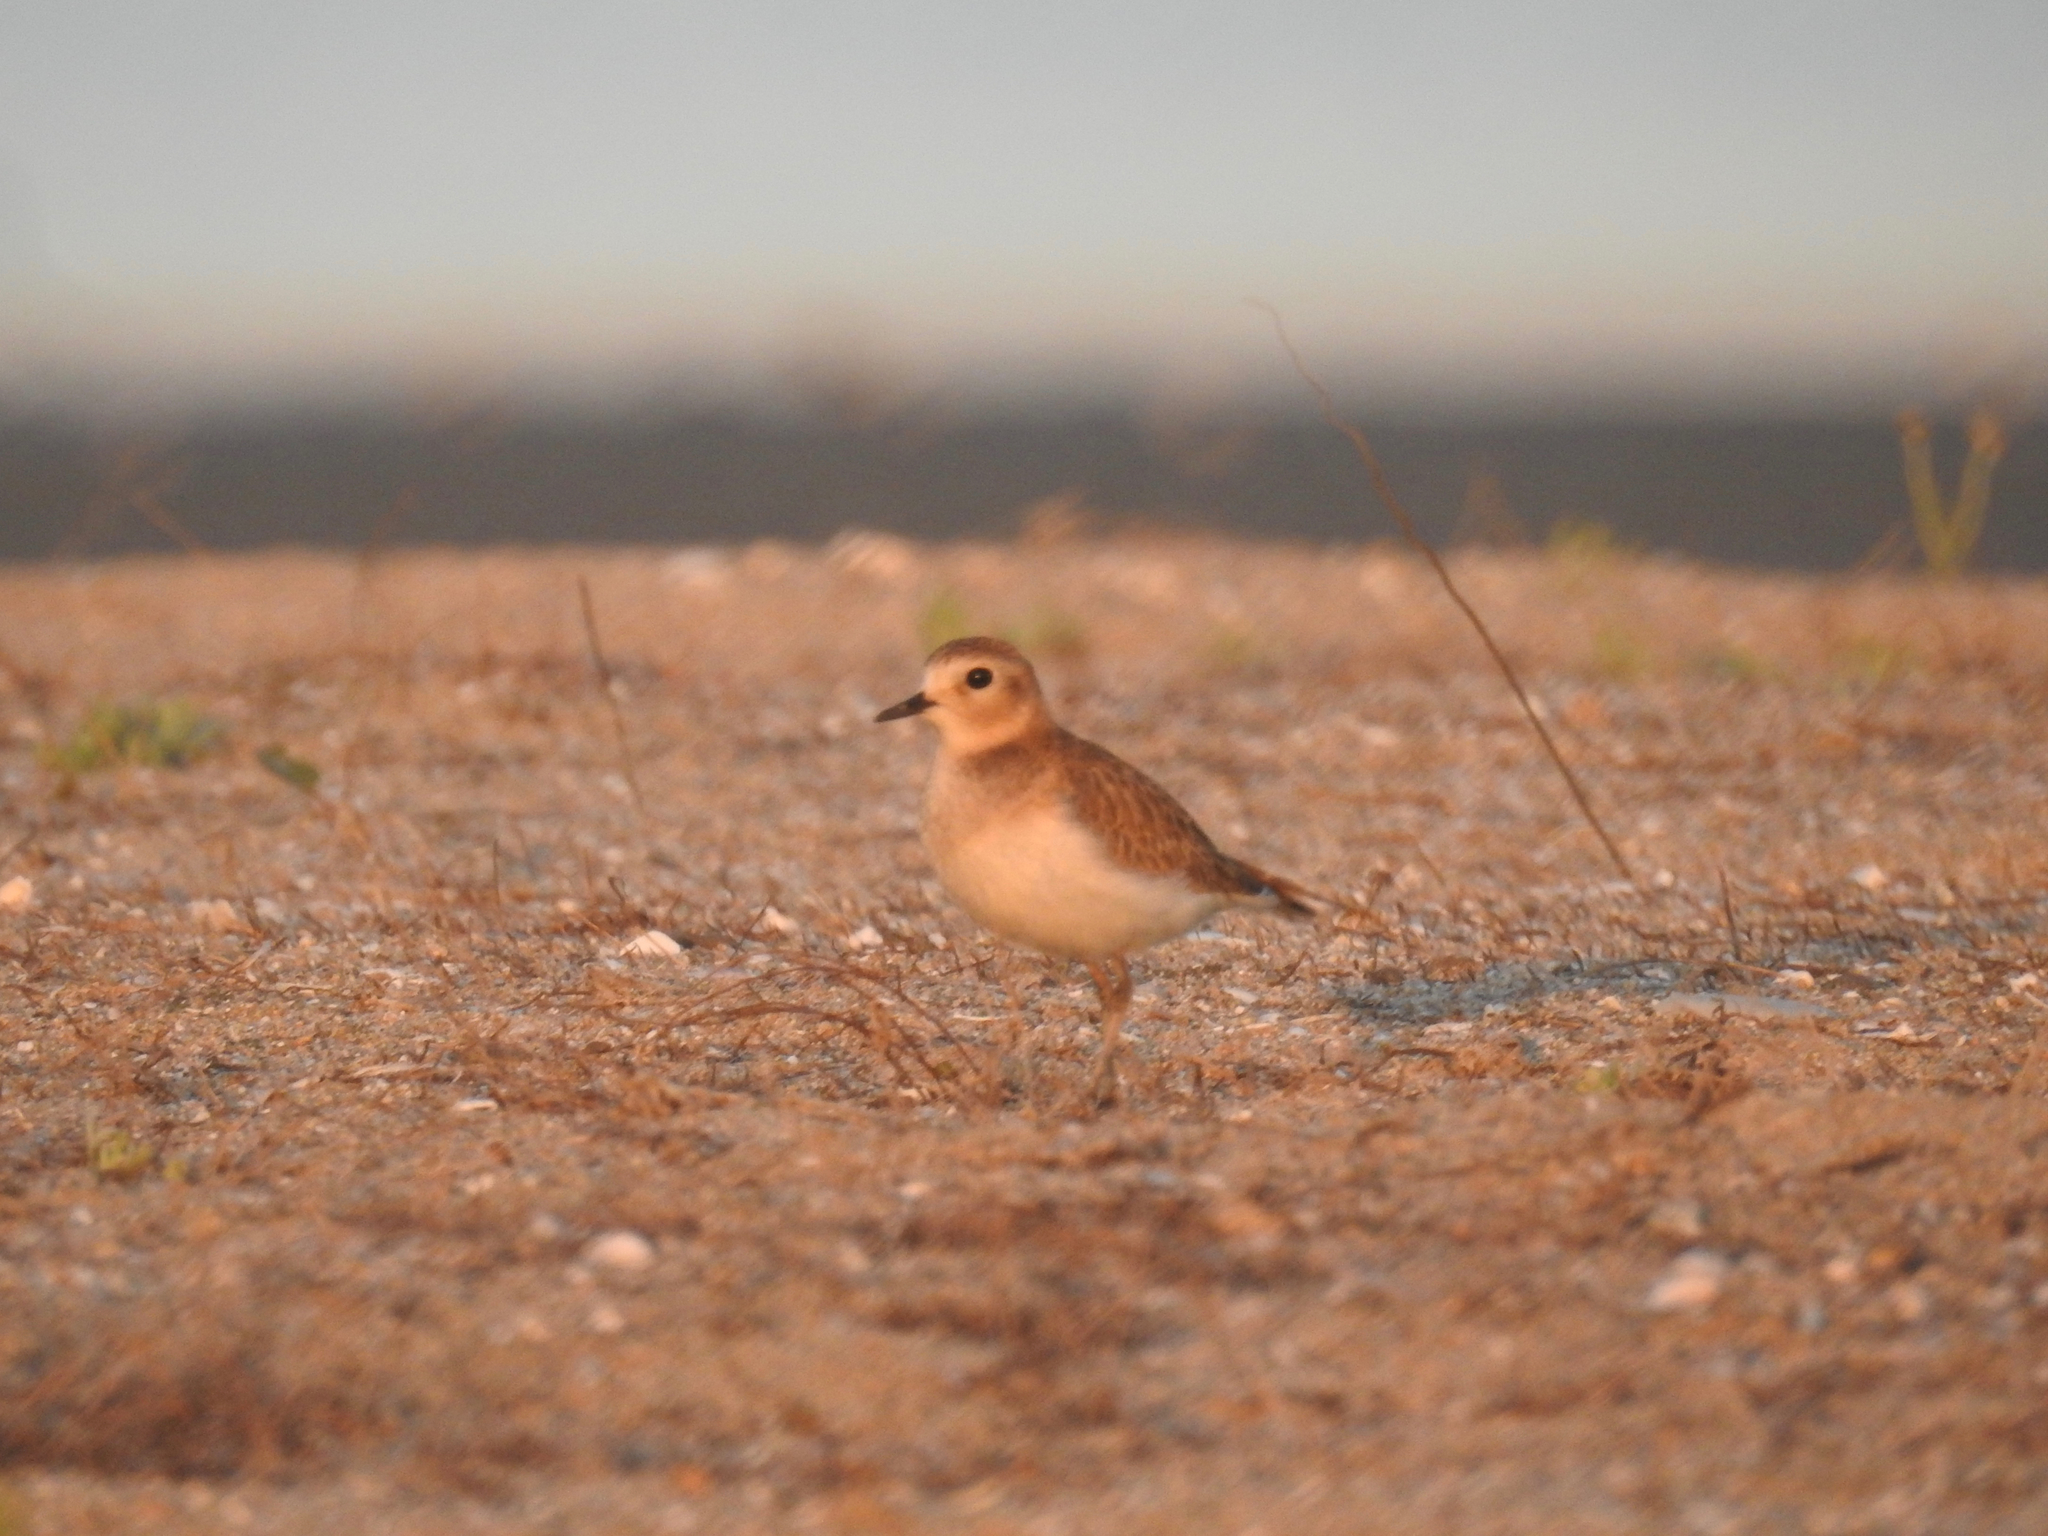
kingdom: Animalia
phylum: Chordata
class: Aves
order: Charadriiformes
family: Charadriidae
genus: Anarhynchus
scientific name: Anarhynchus
